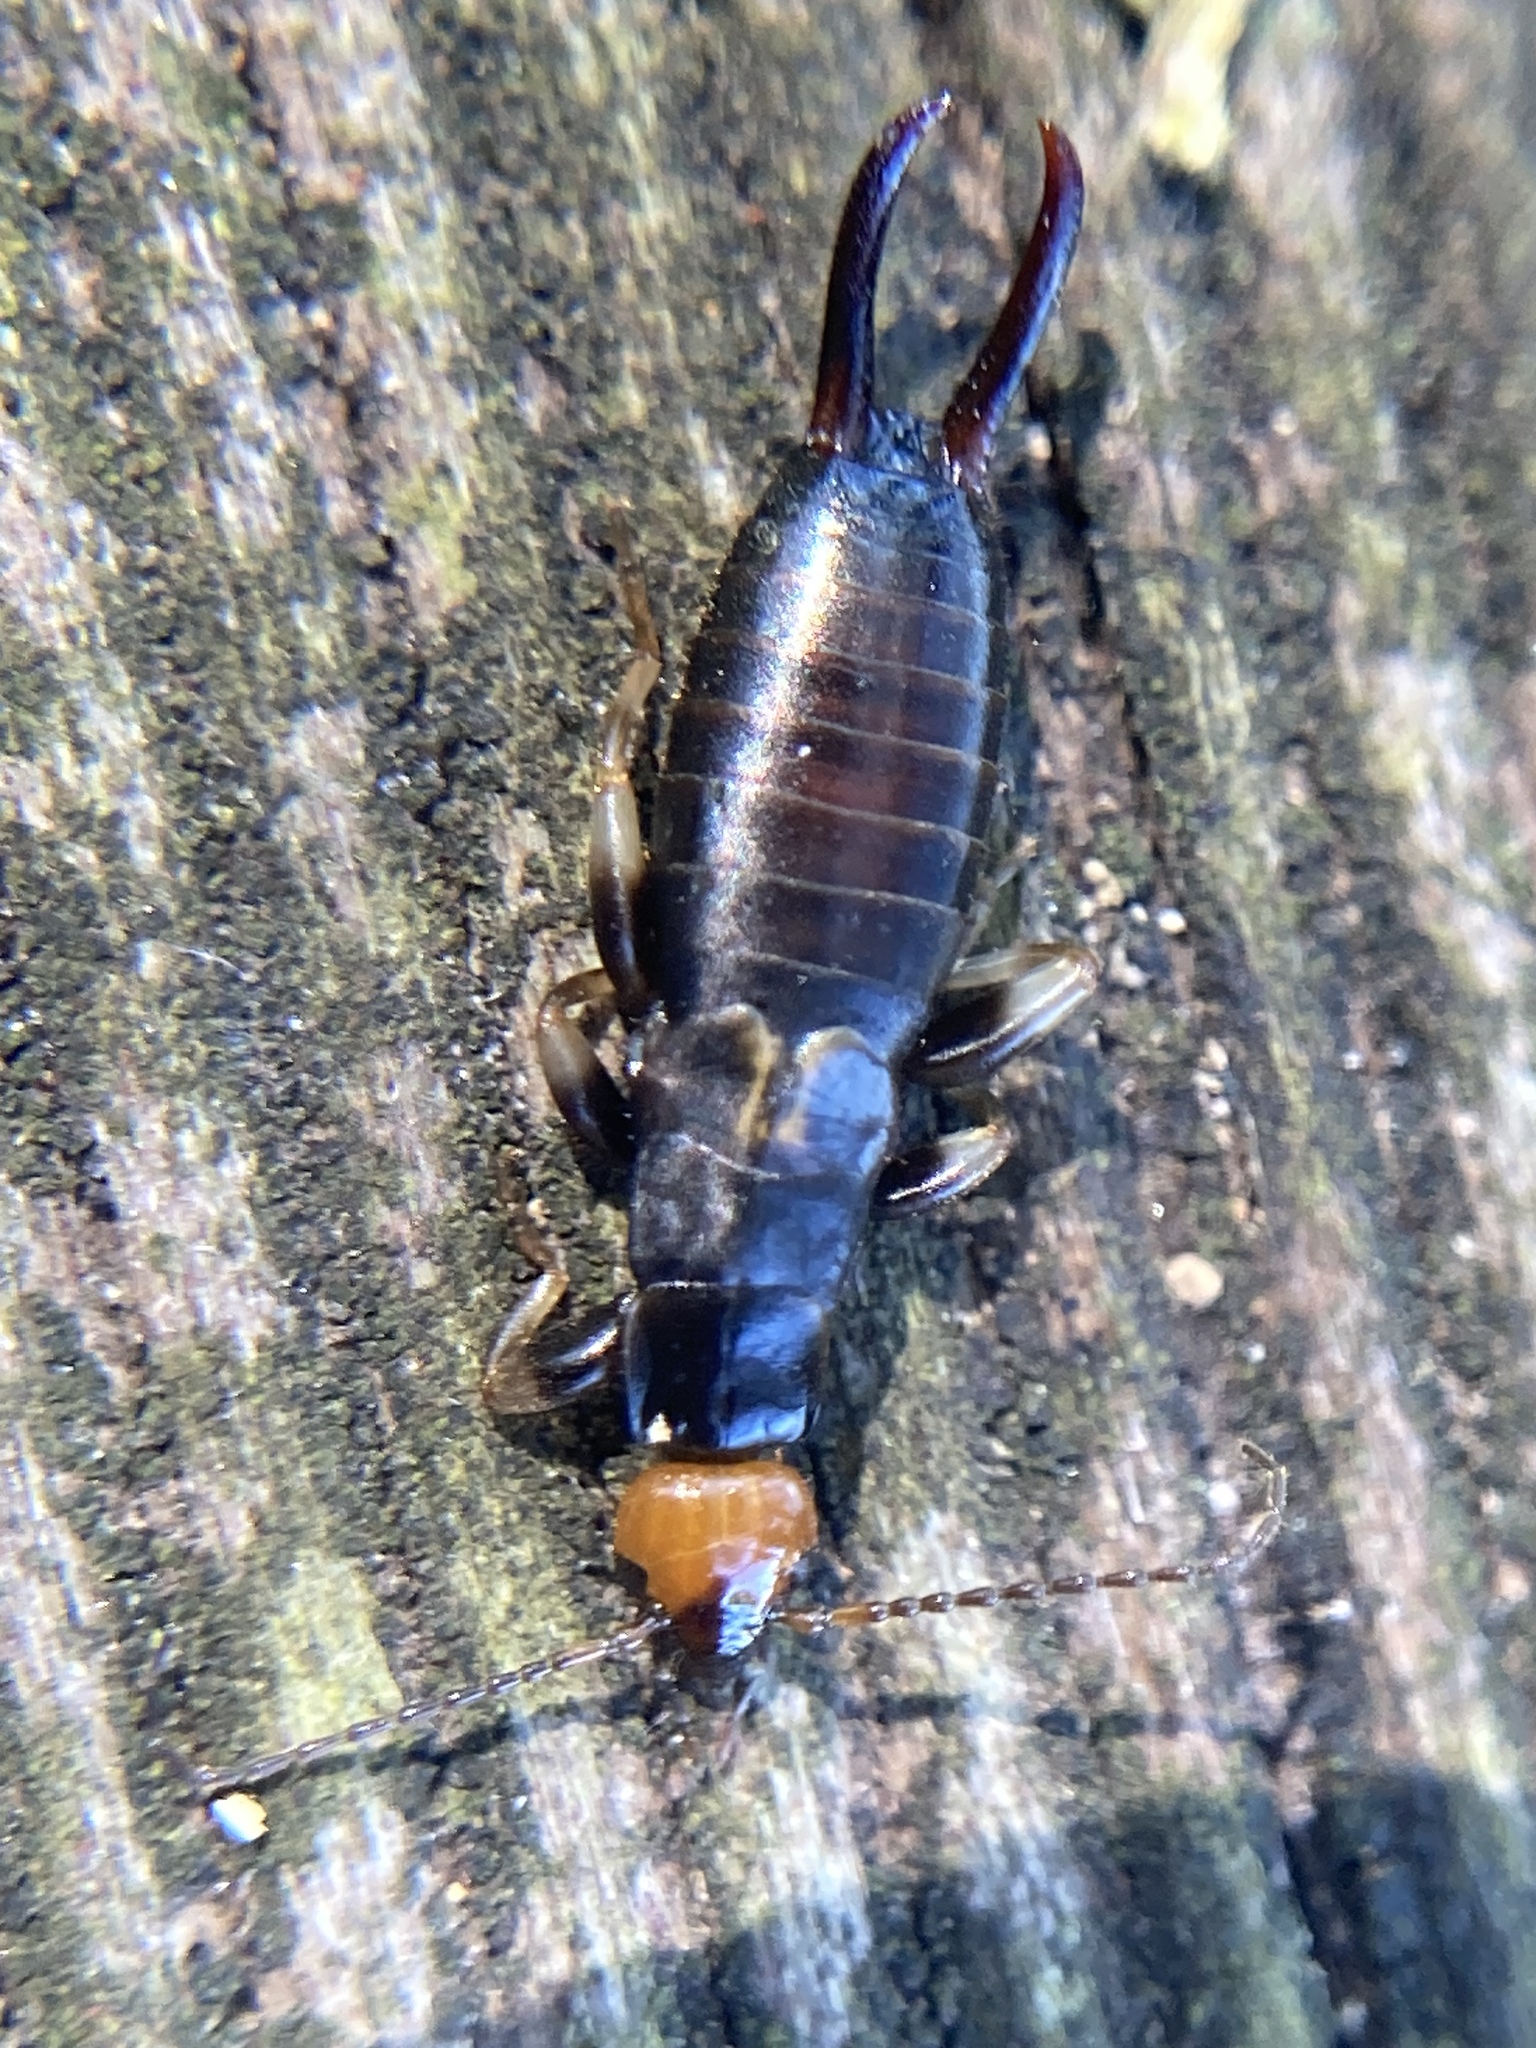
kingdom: Animalia
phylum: Arthropoda
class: Insecta
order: Dermaptera
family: Spongiphoridae
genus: Nesogaster
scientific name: Nesogaster ruficeps
